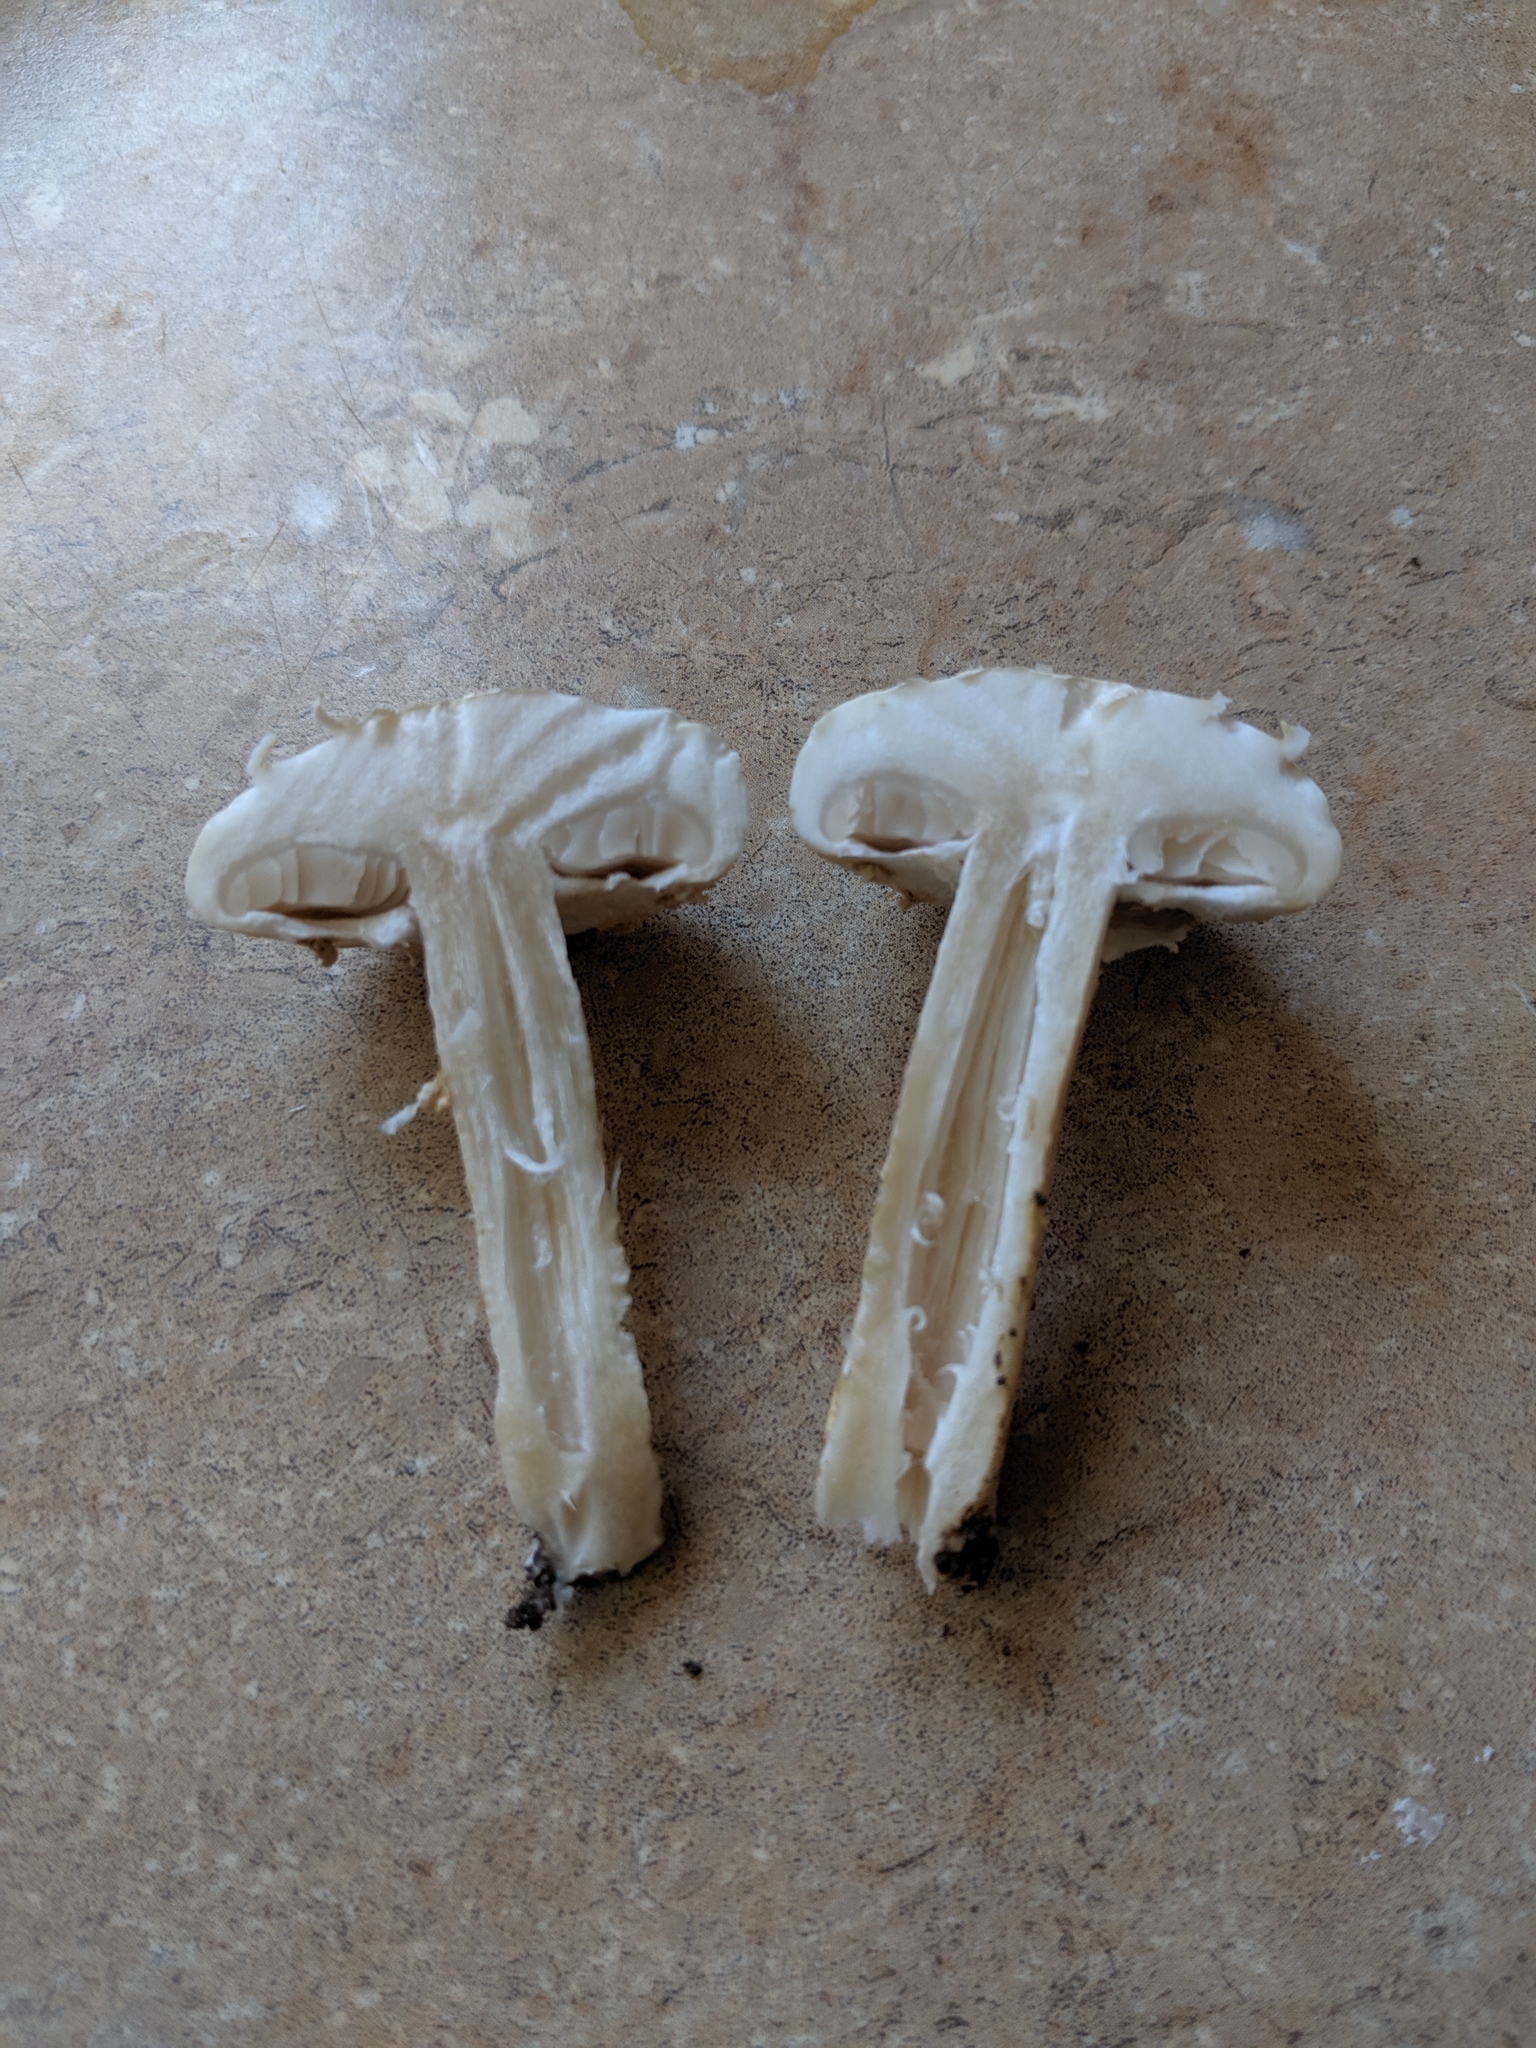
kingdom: Fungi
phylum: Basidiomycota
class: Agaricomycetes
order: Agaricales
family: Strophariaceae
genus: Agrocybe
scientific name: Agrocybe praecox
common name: Spring fieldcap
